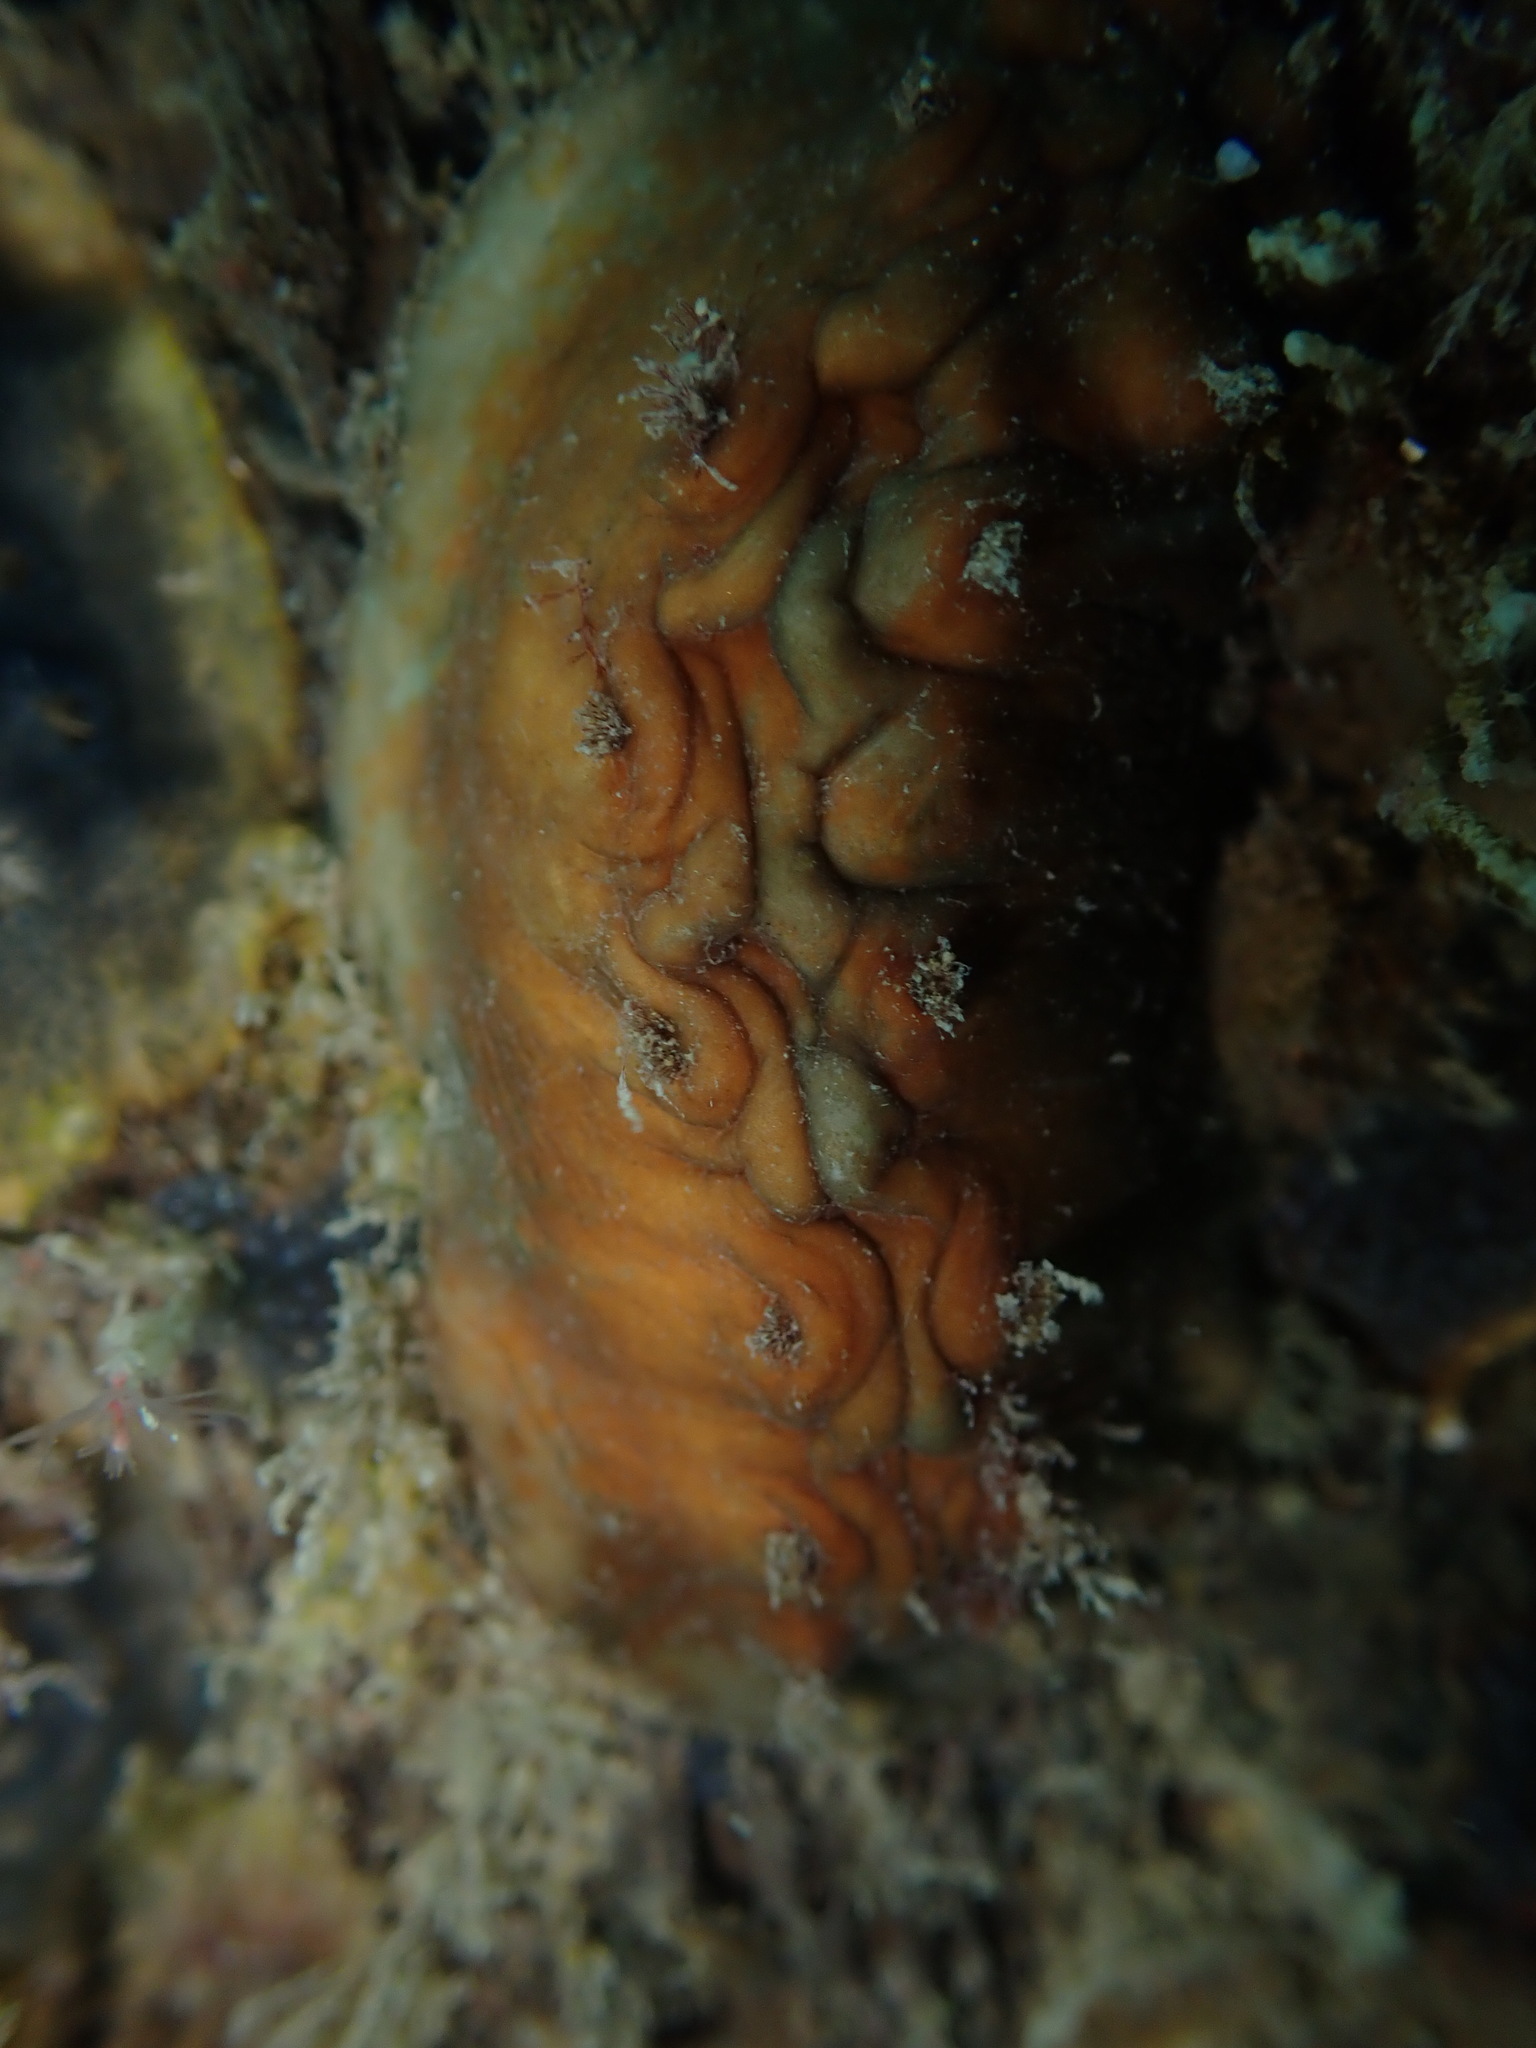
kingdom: Animalia
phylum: Mollusca
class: Polyplacophora
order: Chitonida
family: Acanthochitonidae
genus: Cryptoconchus
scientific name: Cryptoconchus porosus
